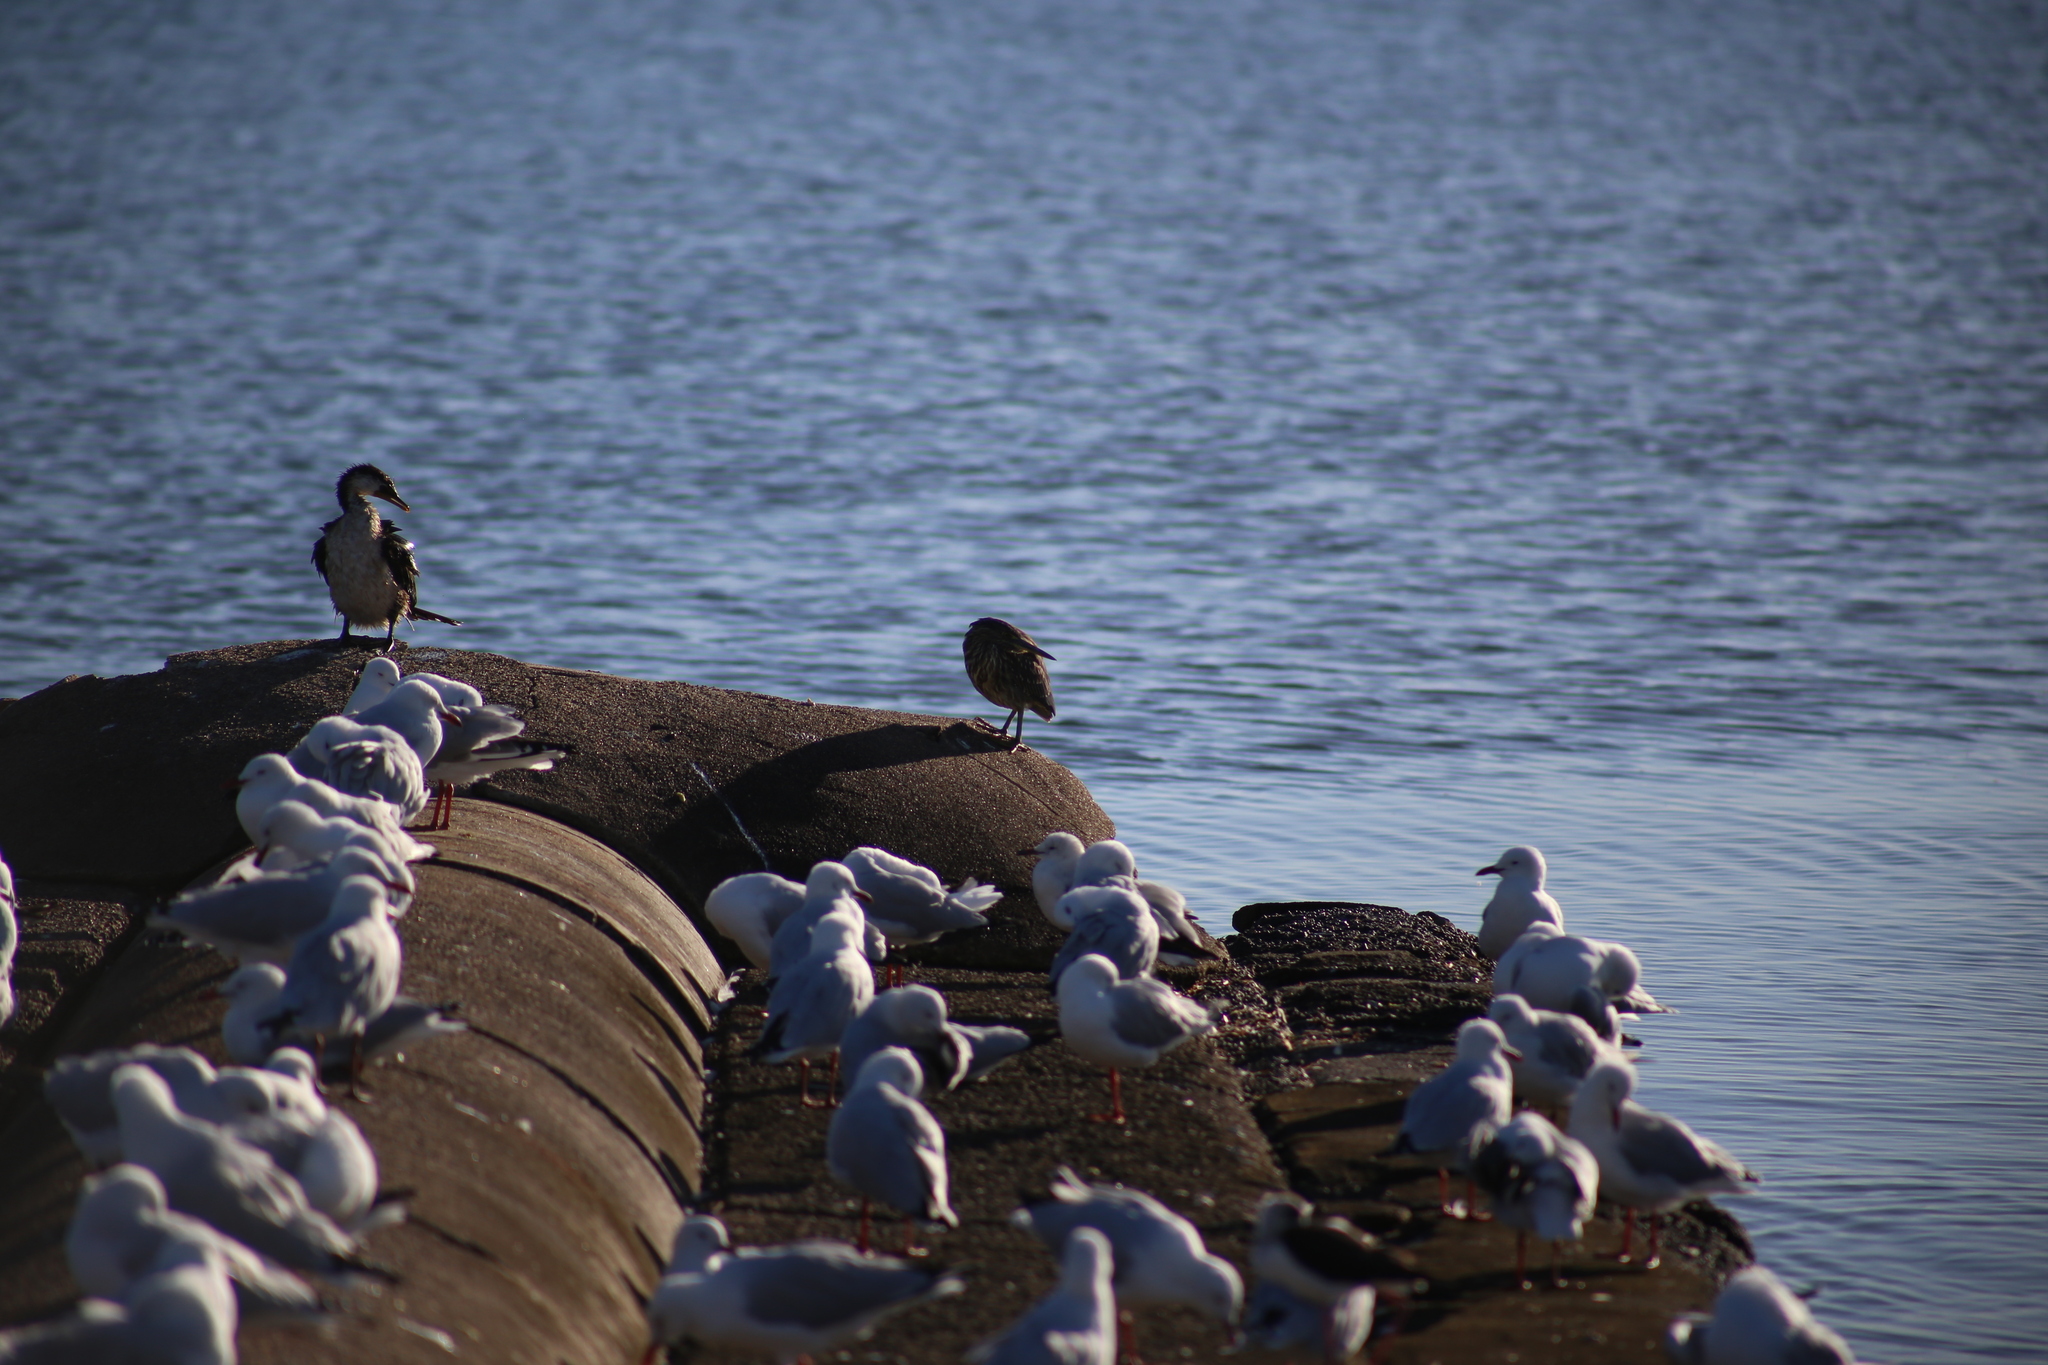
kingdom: Animalia
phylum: Chordata
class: Aves
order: Pelecaniformes
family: Ardeidae
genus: Butorides
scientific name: Butorides striata
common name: Striated heron
